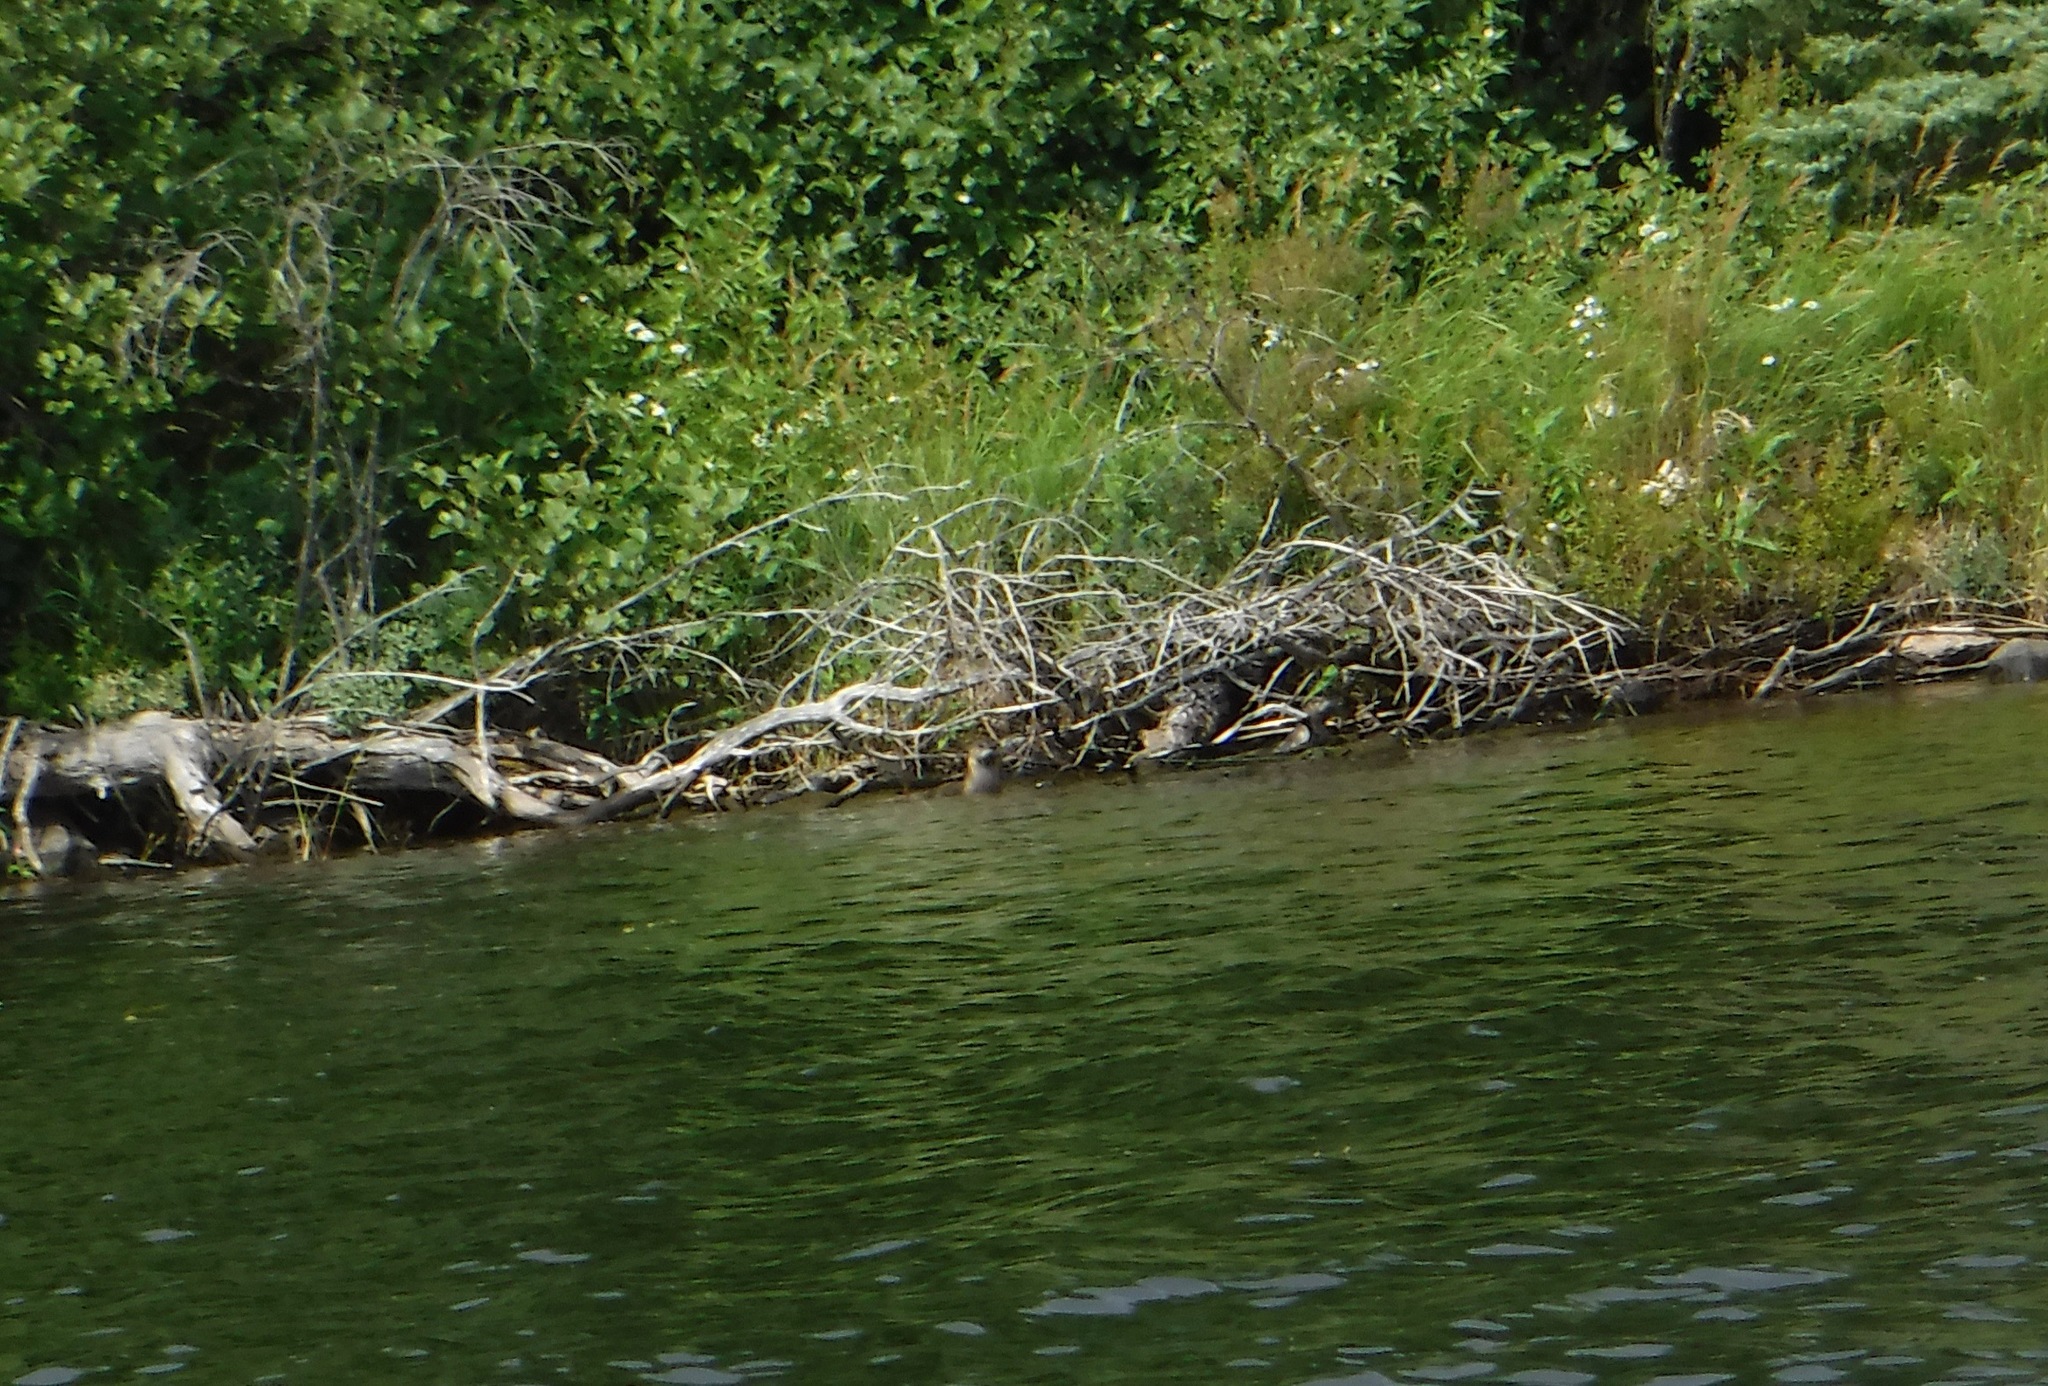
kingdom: Animalia
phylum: Chordata
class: Mammalia
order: Carnivora
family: Mustelidae
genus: Lontra
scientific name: Lontra canadensis
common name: North american river otter
